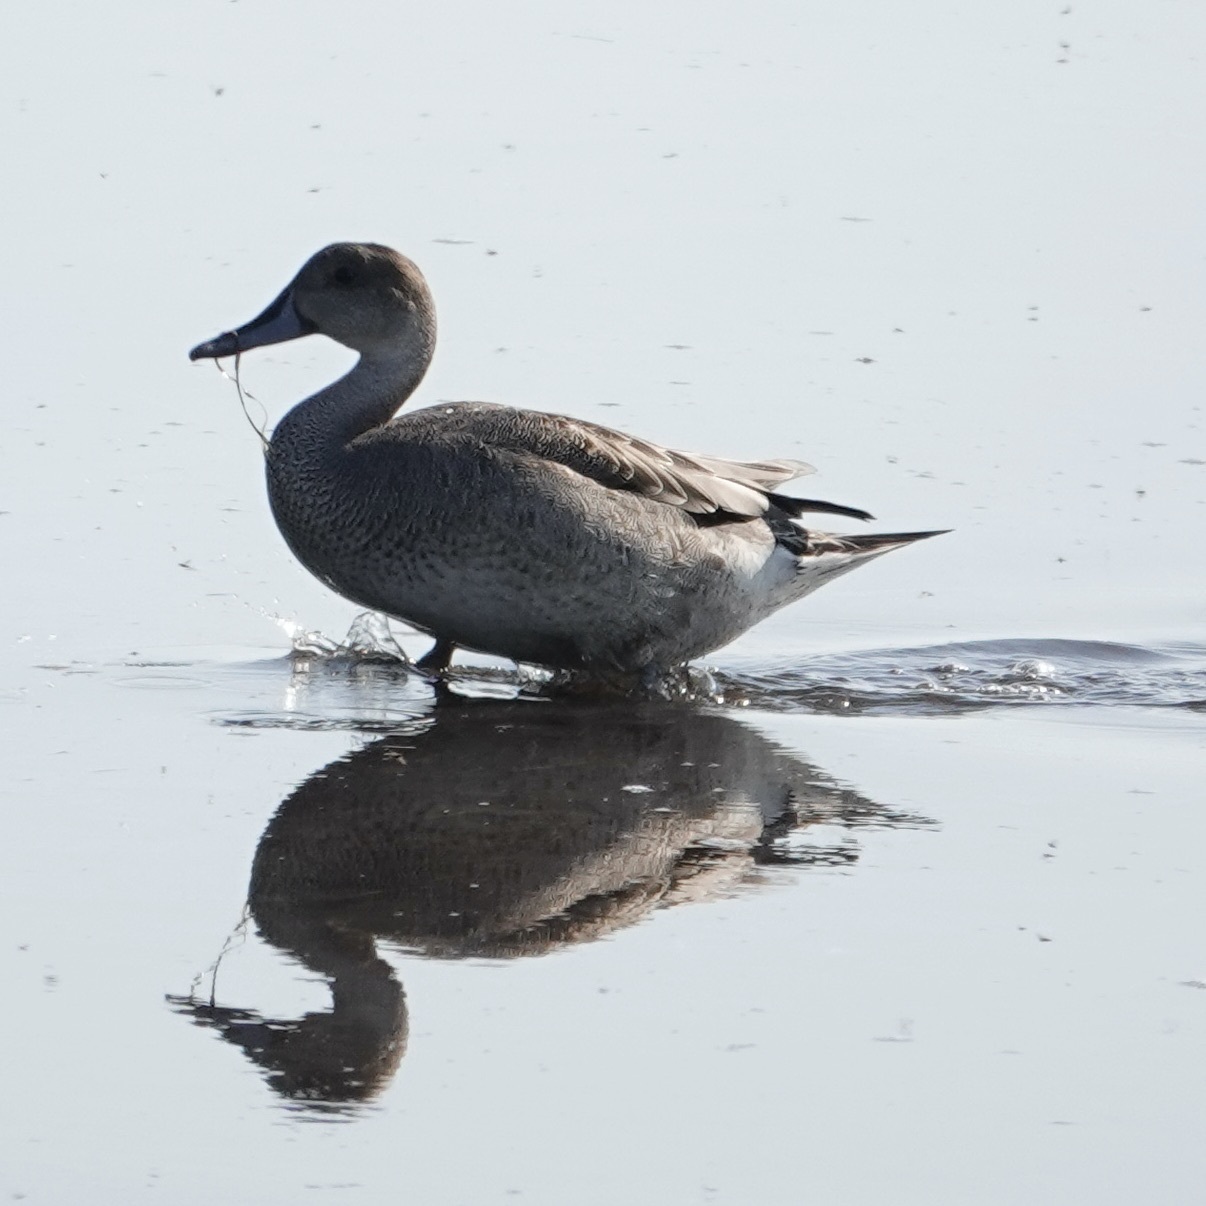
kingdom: Animalia
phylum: Chordata
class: Aves
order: Anseriformes
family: Anatidae
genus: Anas
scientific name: Anas acuta
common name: Northern pintail
